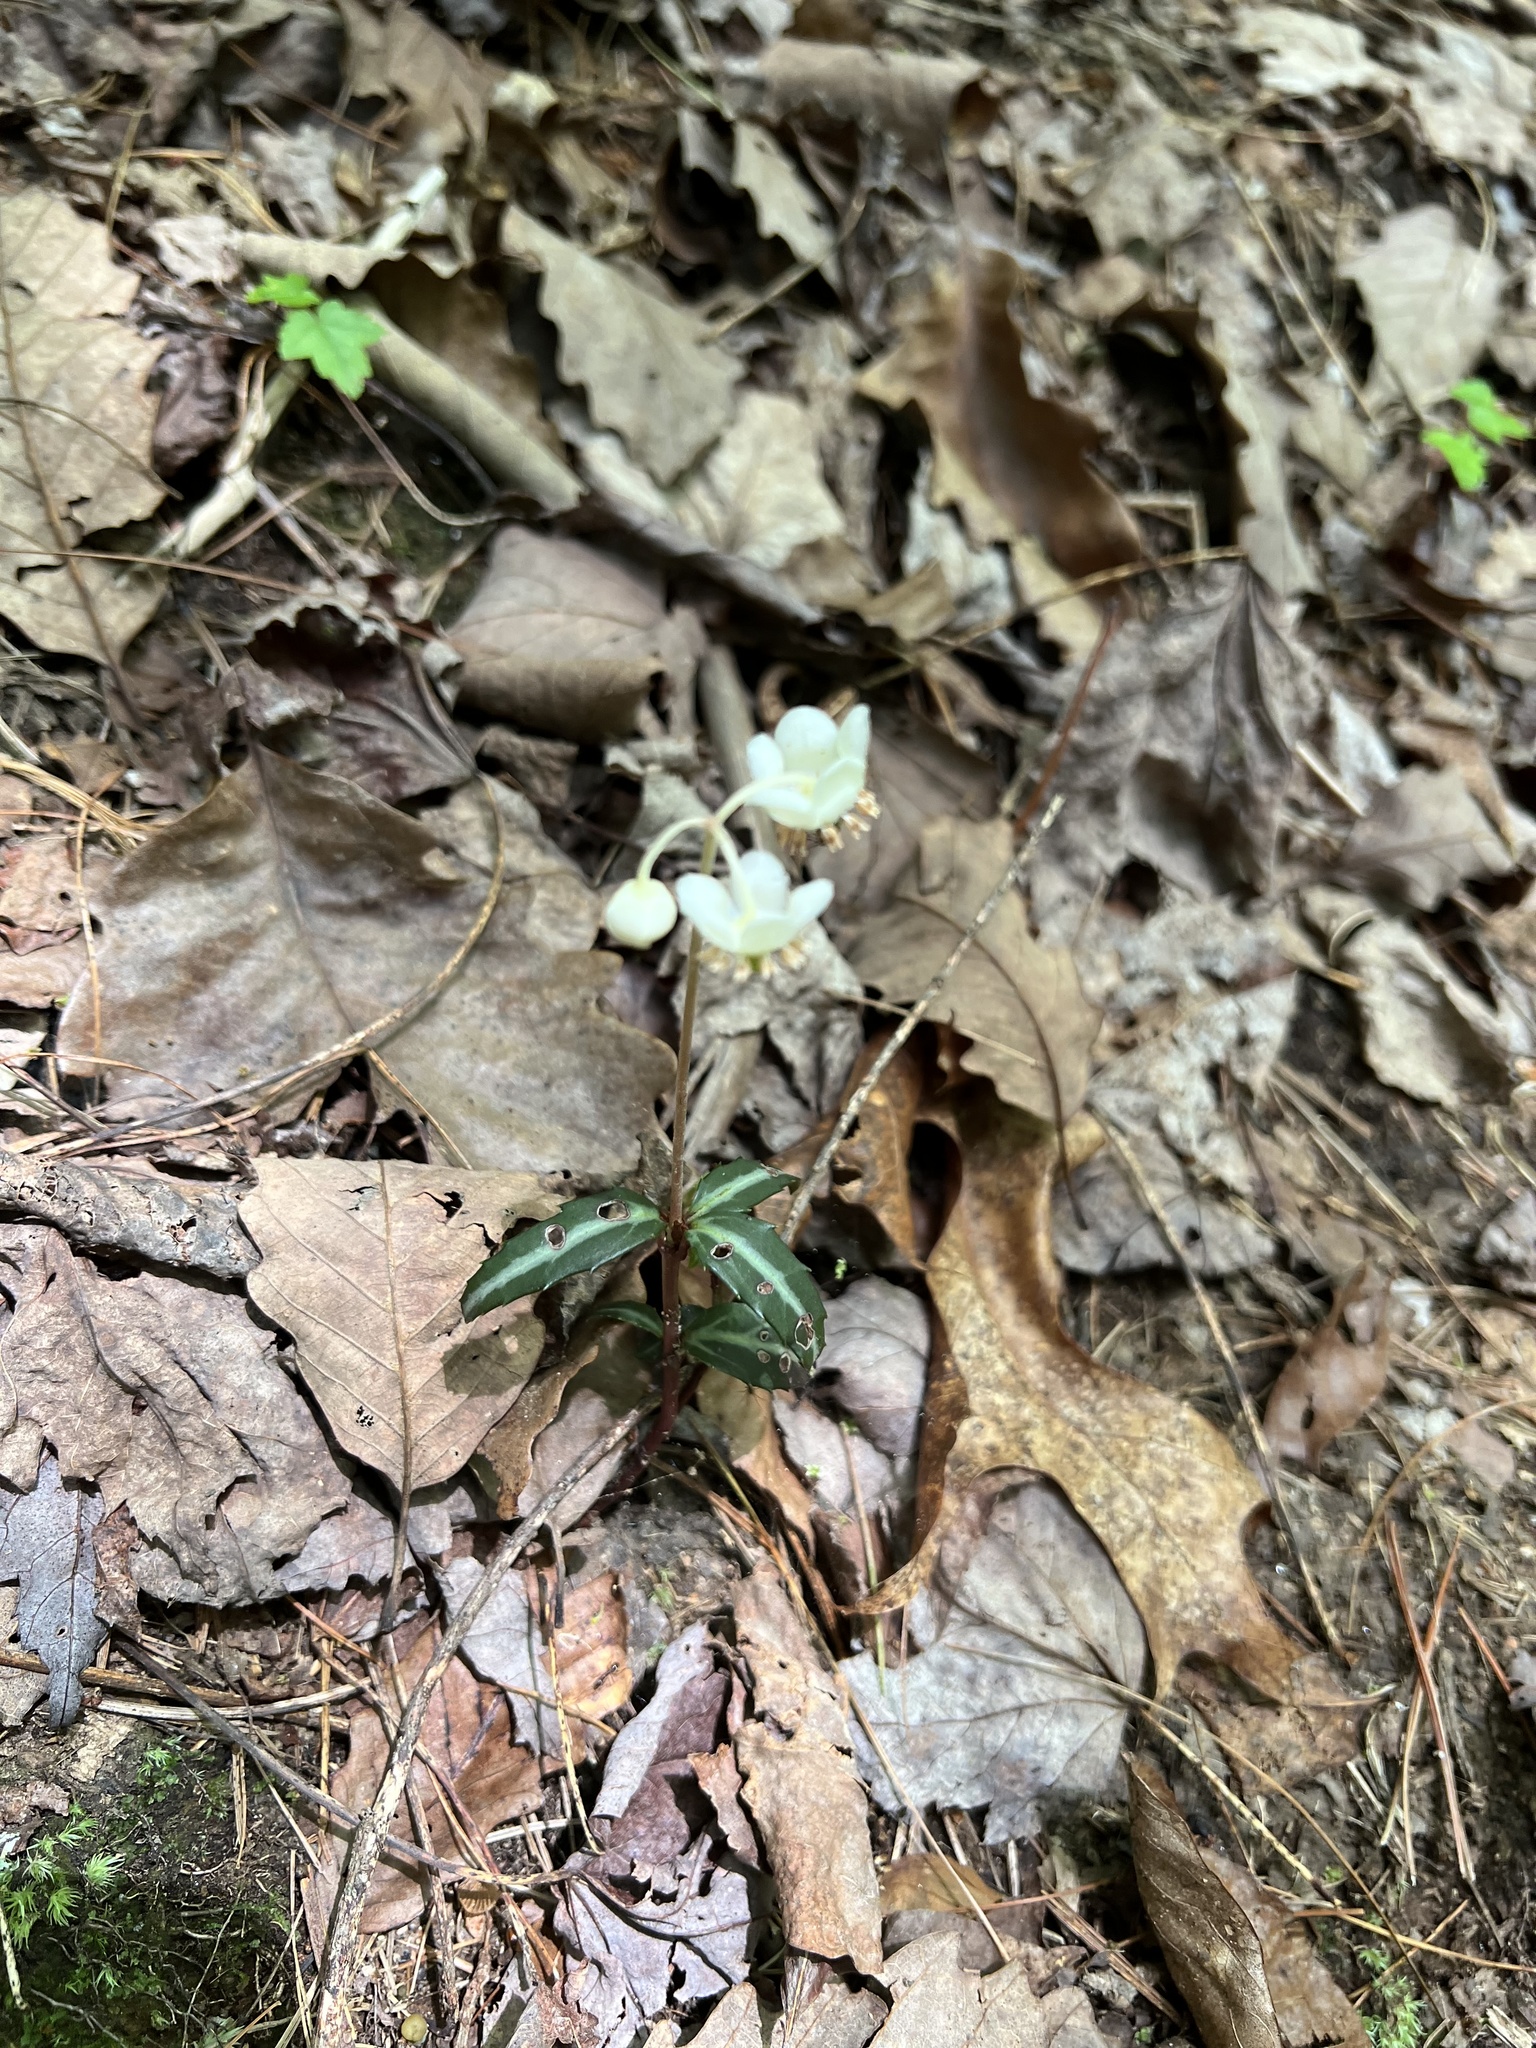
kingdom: Plantae
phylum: Tracheophyta
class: Magnoliopsida
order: Ericales
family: Ericaceae
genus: Chimaphila
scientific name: Chimaphila maculata
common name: Spotted pipsissewa
